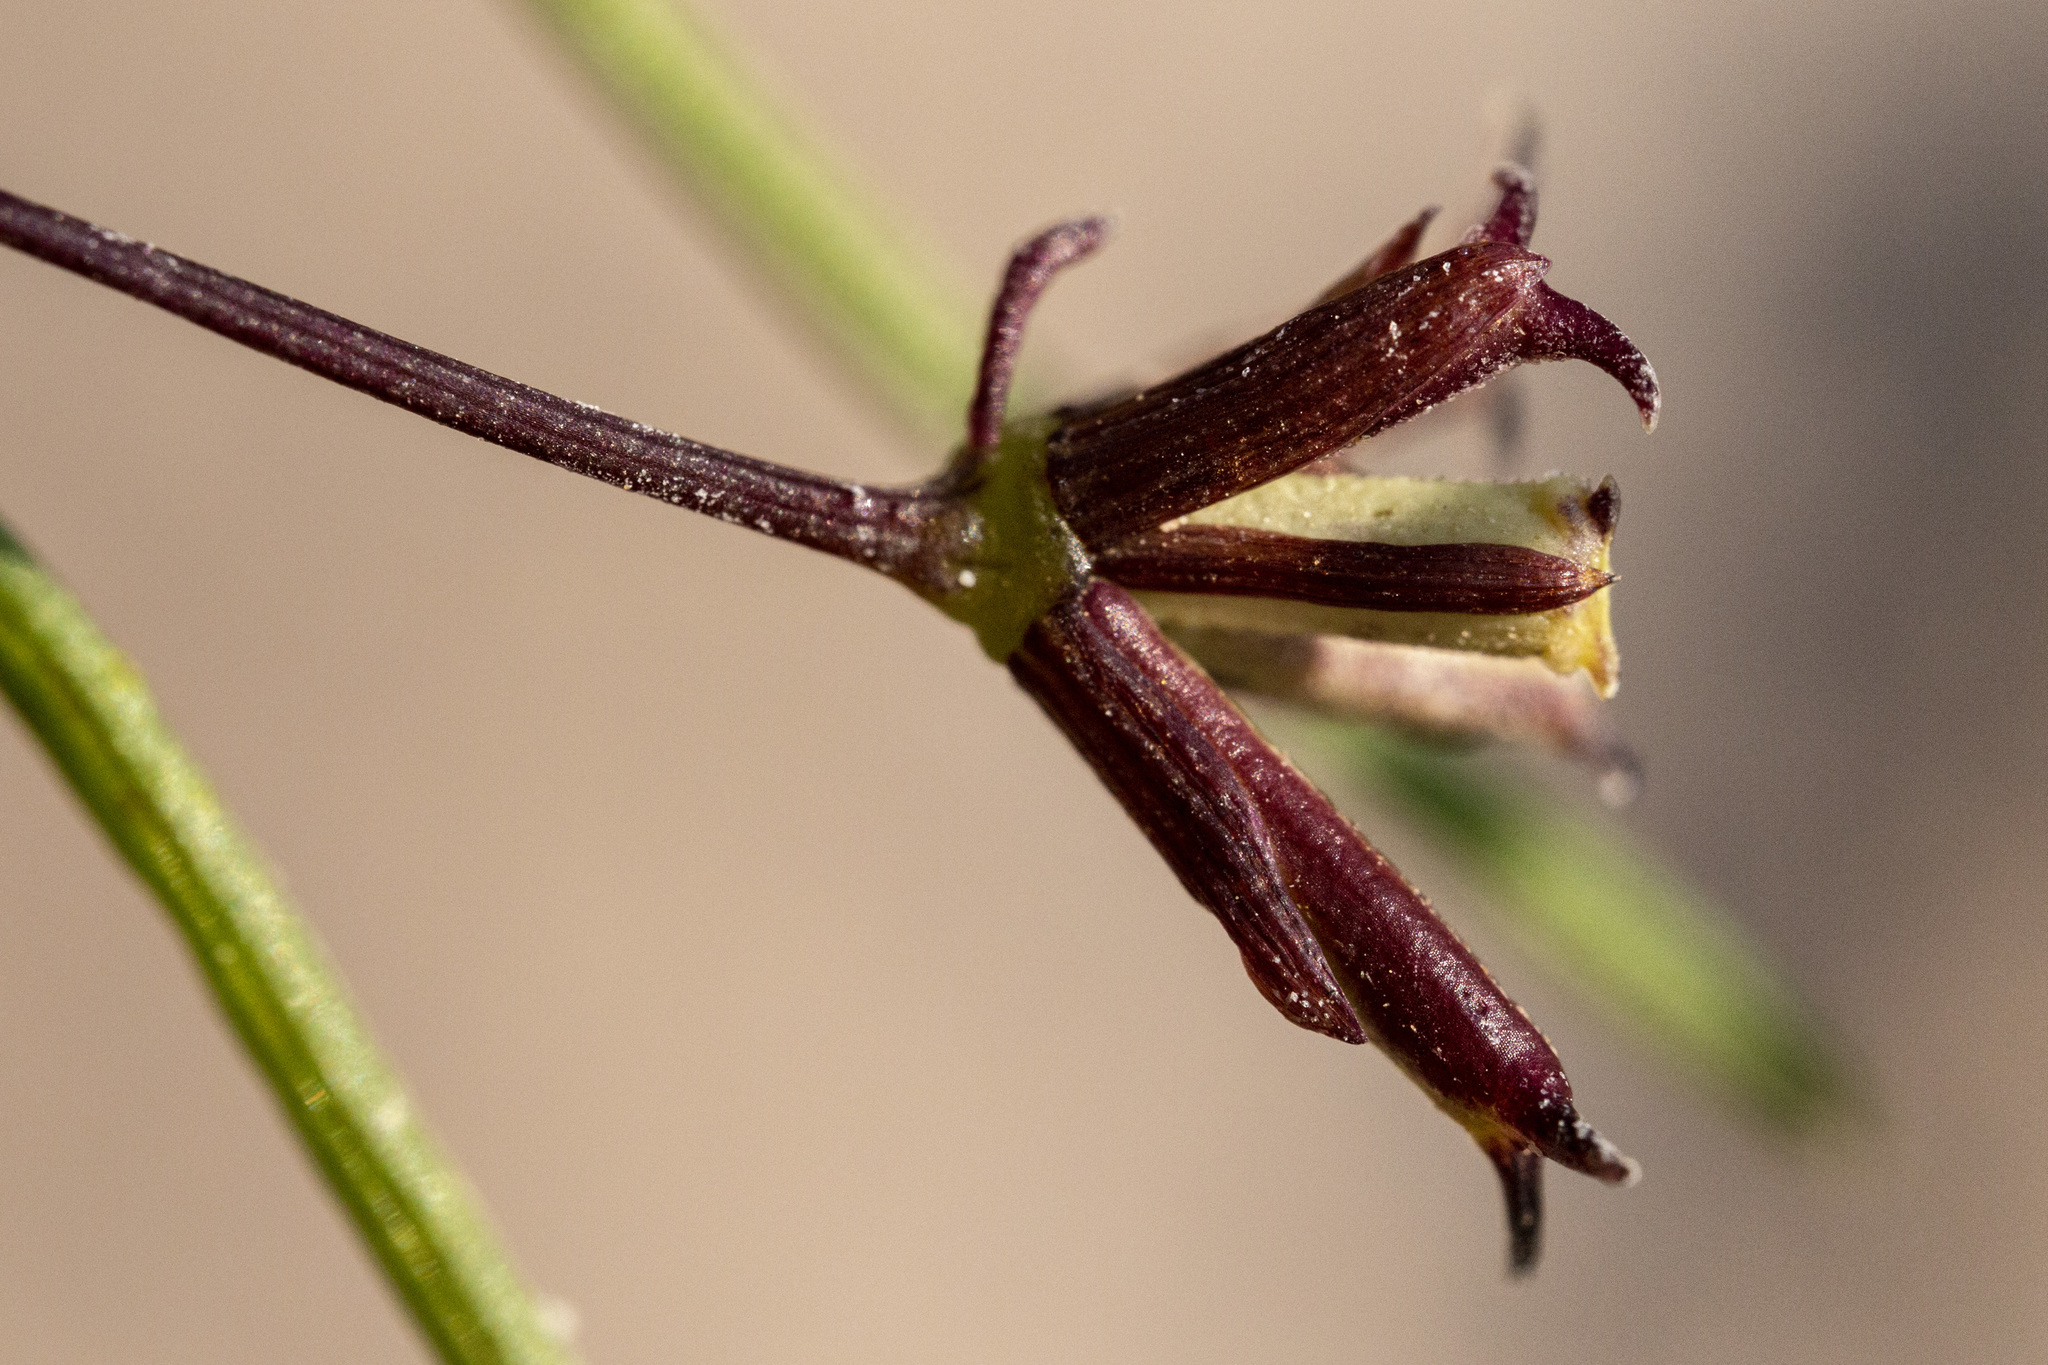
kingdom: Plantae
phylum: Tracheophyta
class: Magnoliopsida
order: Asterales
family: Asteraceae
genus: Dicranocarpus
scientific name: Dicranocarpus parviflorus
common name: Pitchfork
